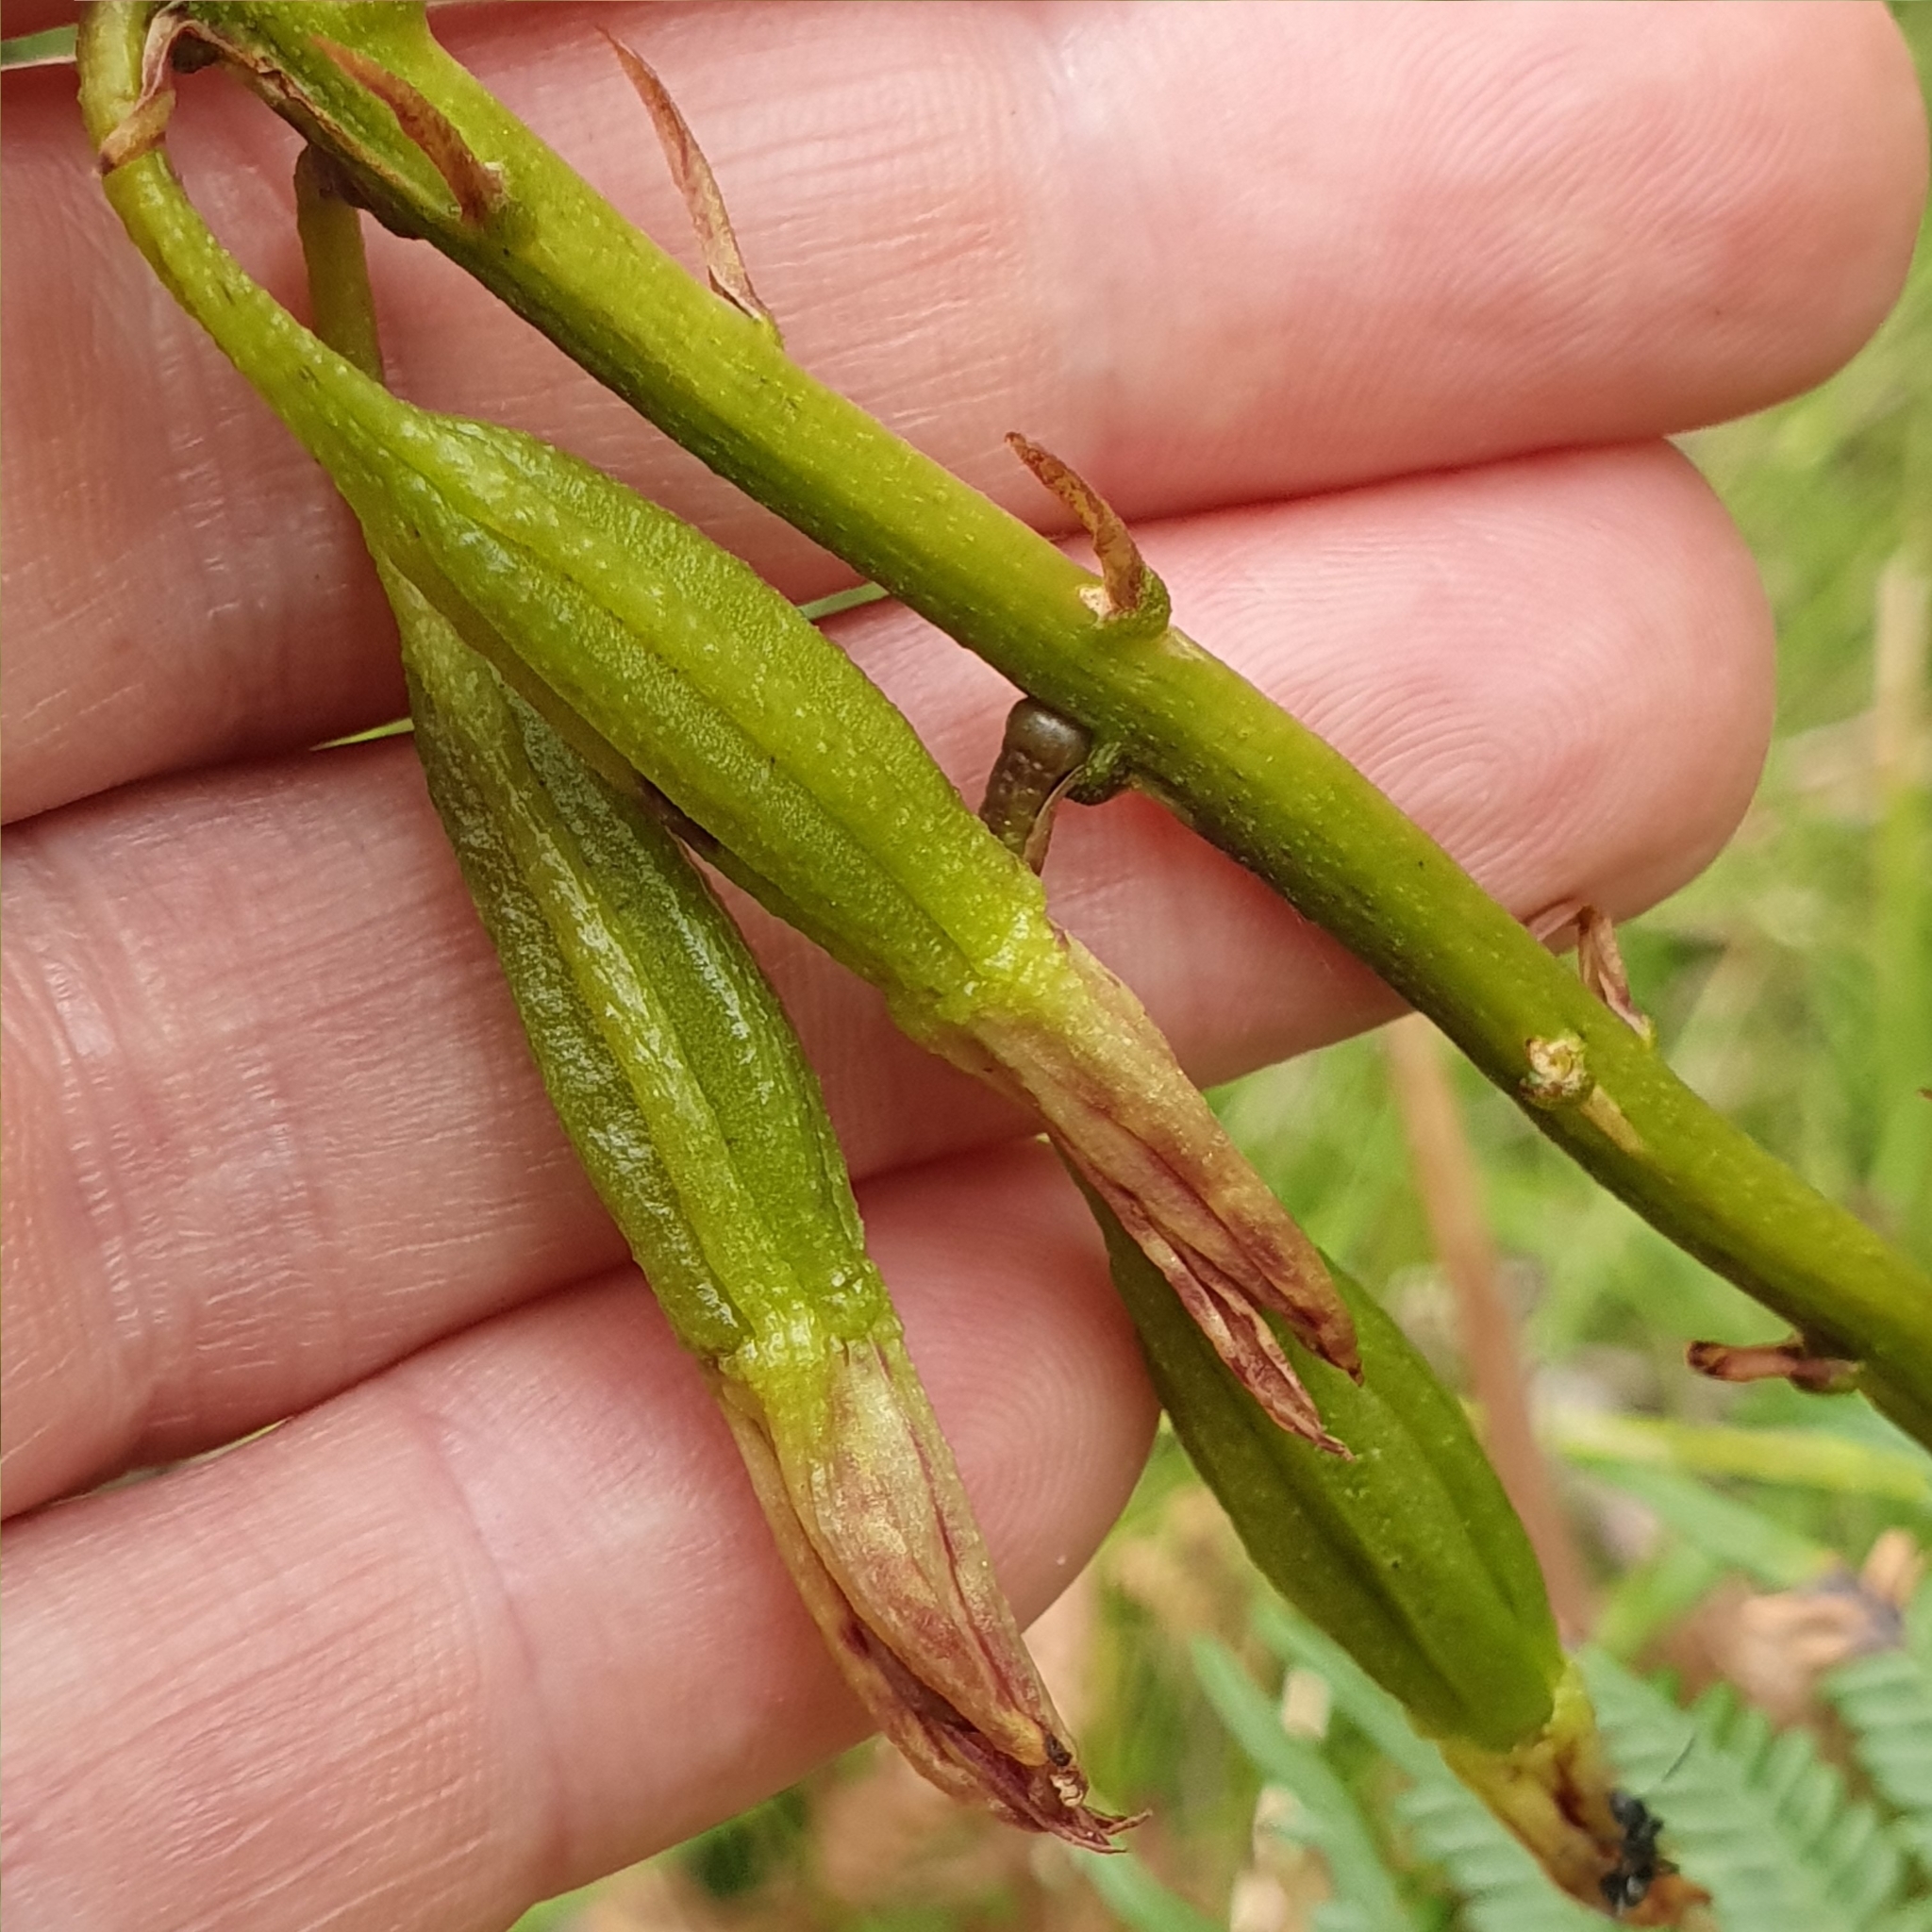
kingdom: Plantae
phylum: Tracheophyta
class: Liliopsida
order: Asparagales
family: Orchidaceae
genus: Dipodium
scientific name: Dipodium variegatum
